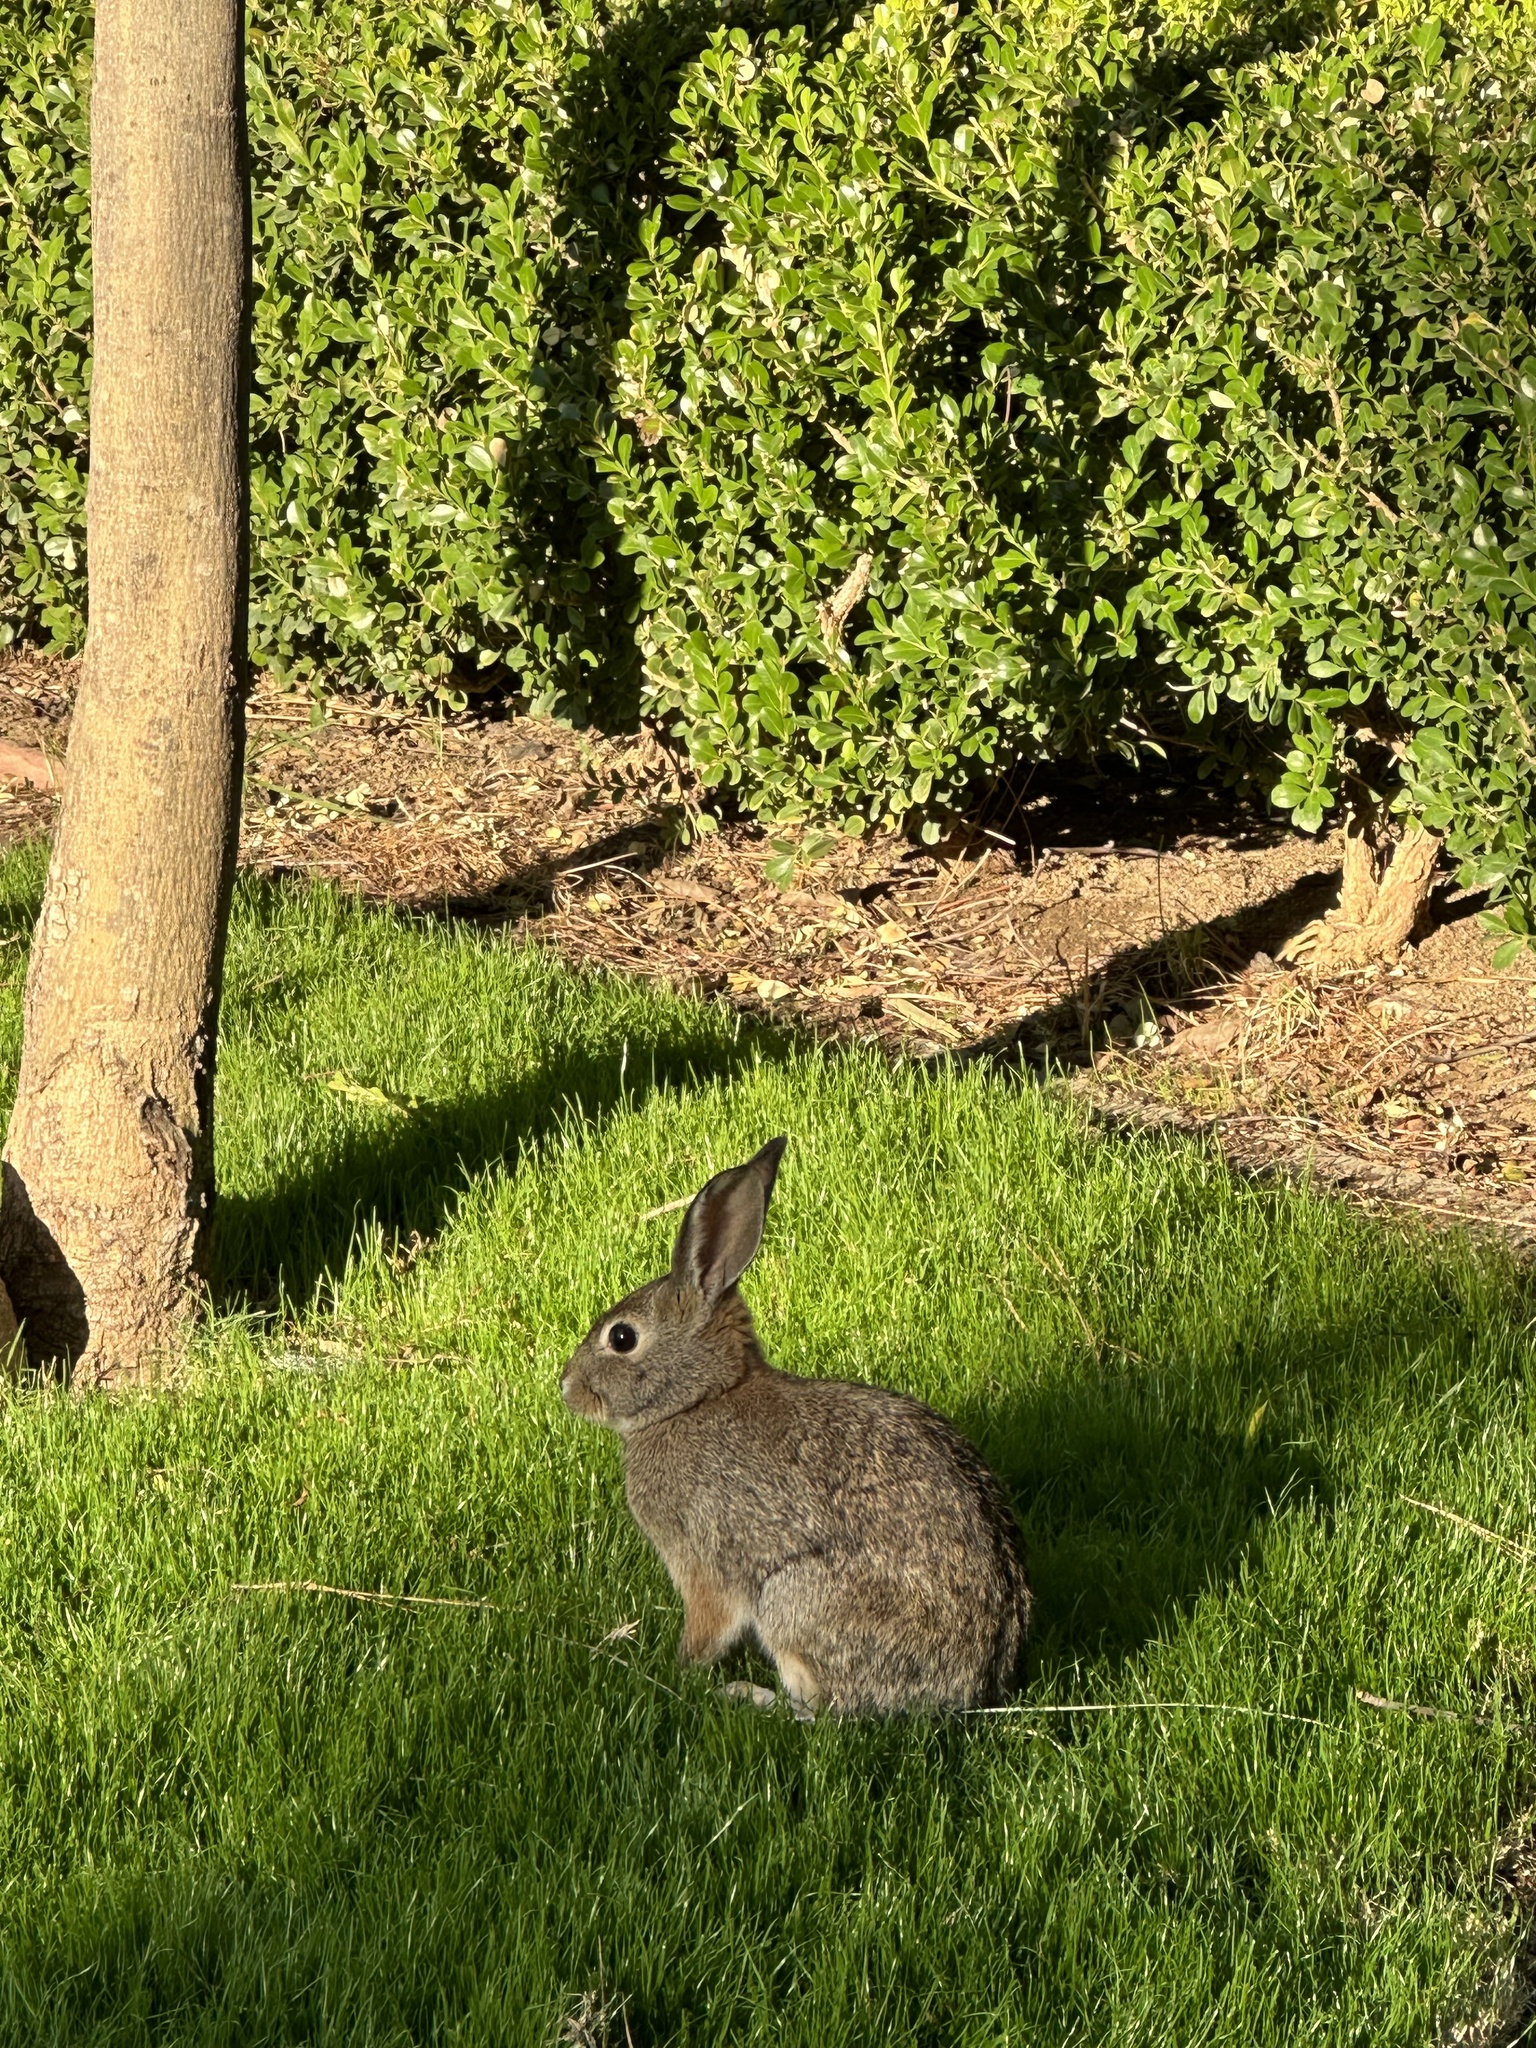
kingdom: Animalia
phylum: Chordata
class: Mammalia
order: Lagomorpha
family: Leporidae
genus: Sylvilagus
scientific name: Sylvilagus audubonii
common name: Desert cottontail
